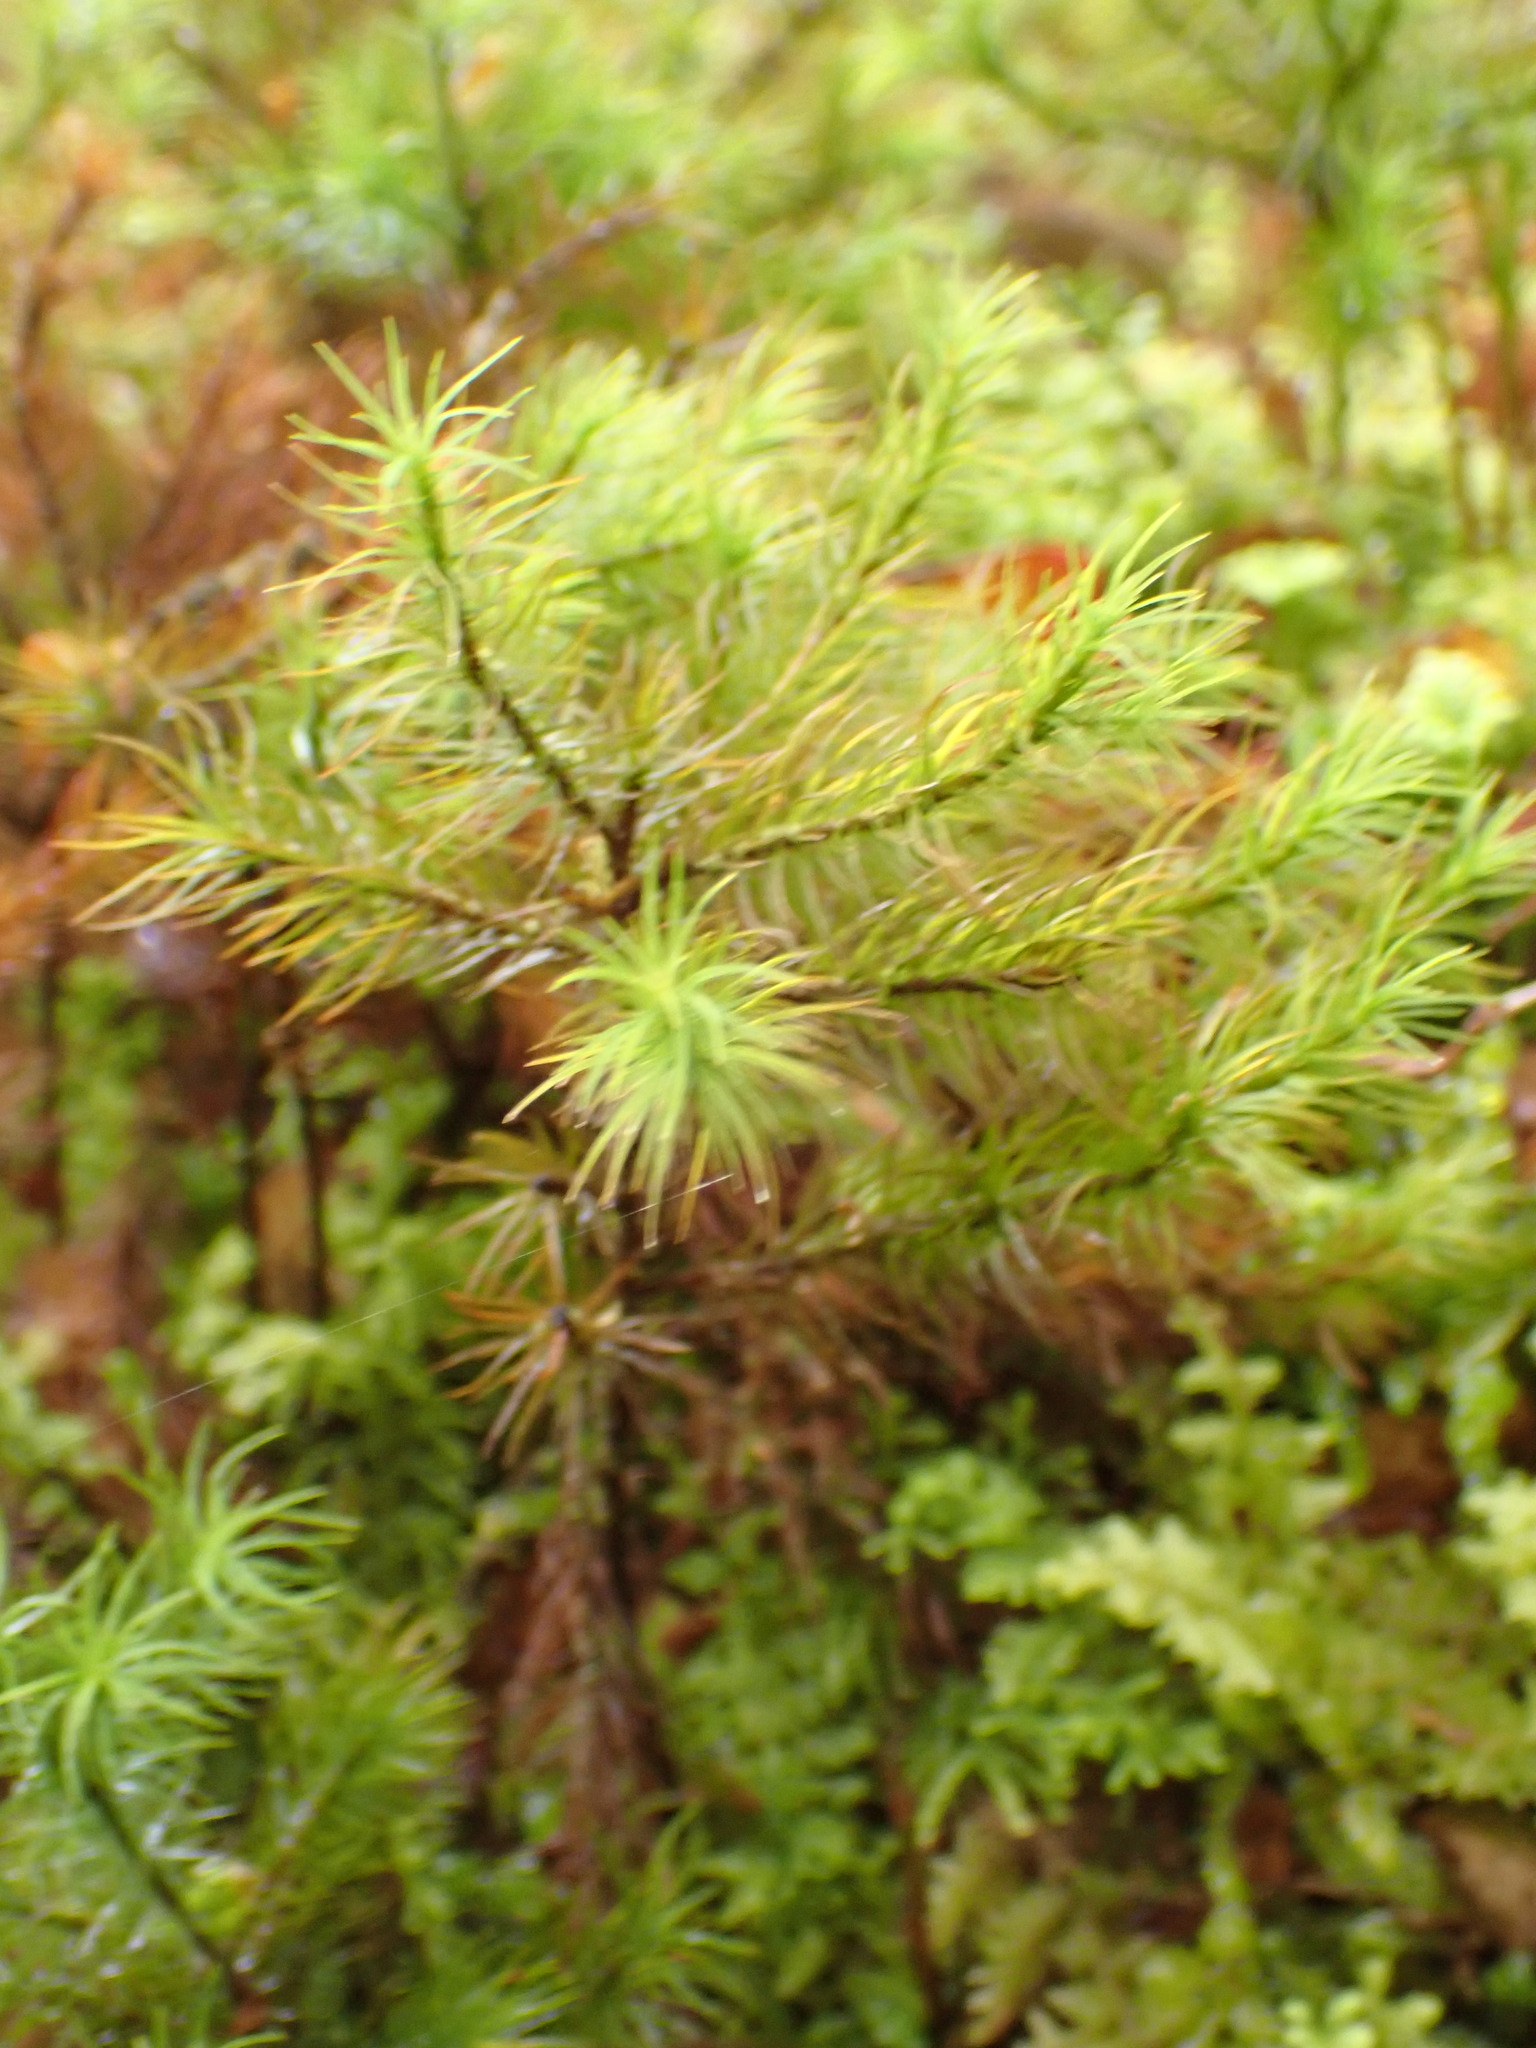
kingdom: Plantae
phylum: Bryophyta
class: Polytrichopsida
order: Polytrichales
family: Polytrichaceae
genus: Dendroligotrichum
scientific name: Dendroligotrichum tongariroense
